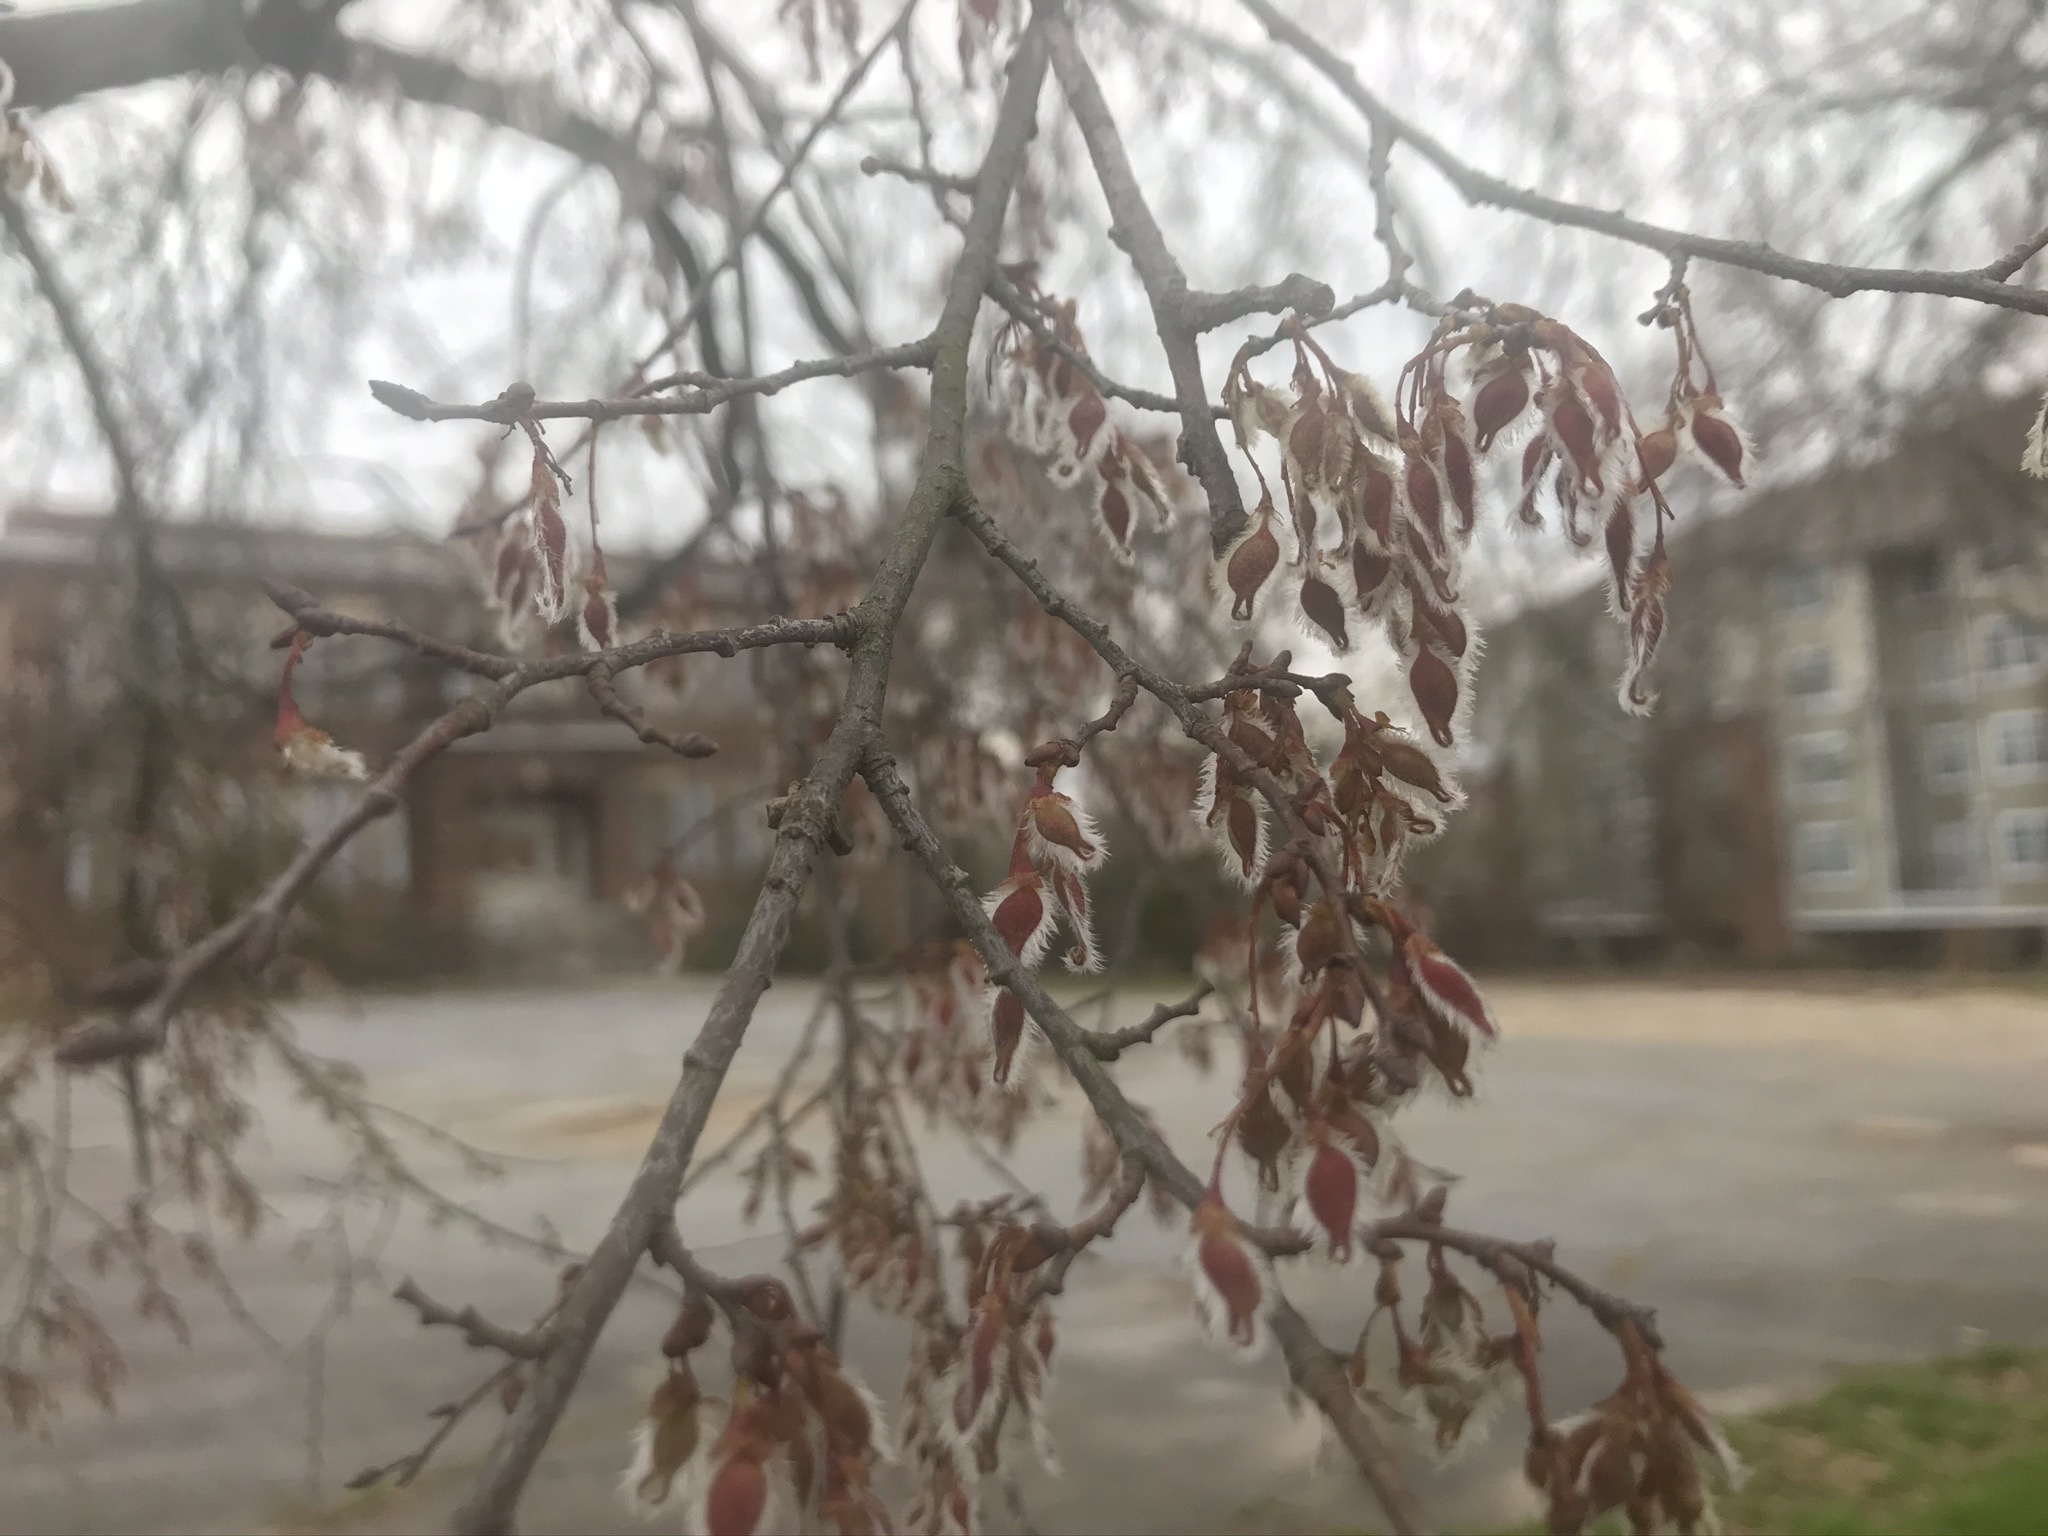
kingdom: Plantae
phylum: Tracheophyta
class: Magnoliopsida
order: Rosales
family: Ulmaceae
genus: Ulmus
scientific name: Ulmus alata
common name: Winged elm
